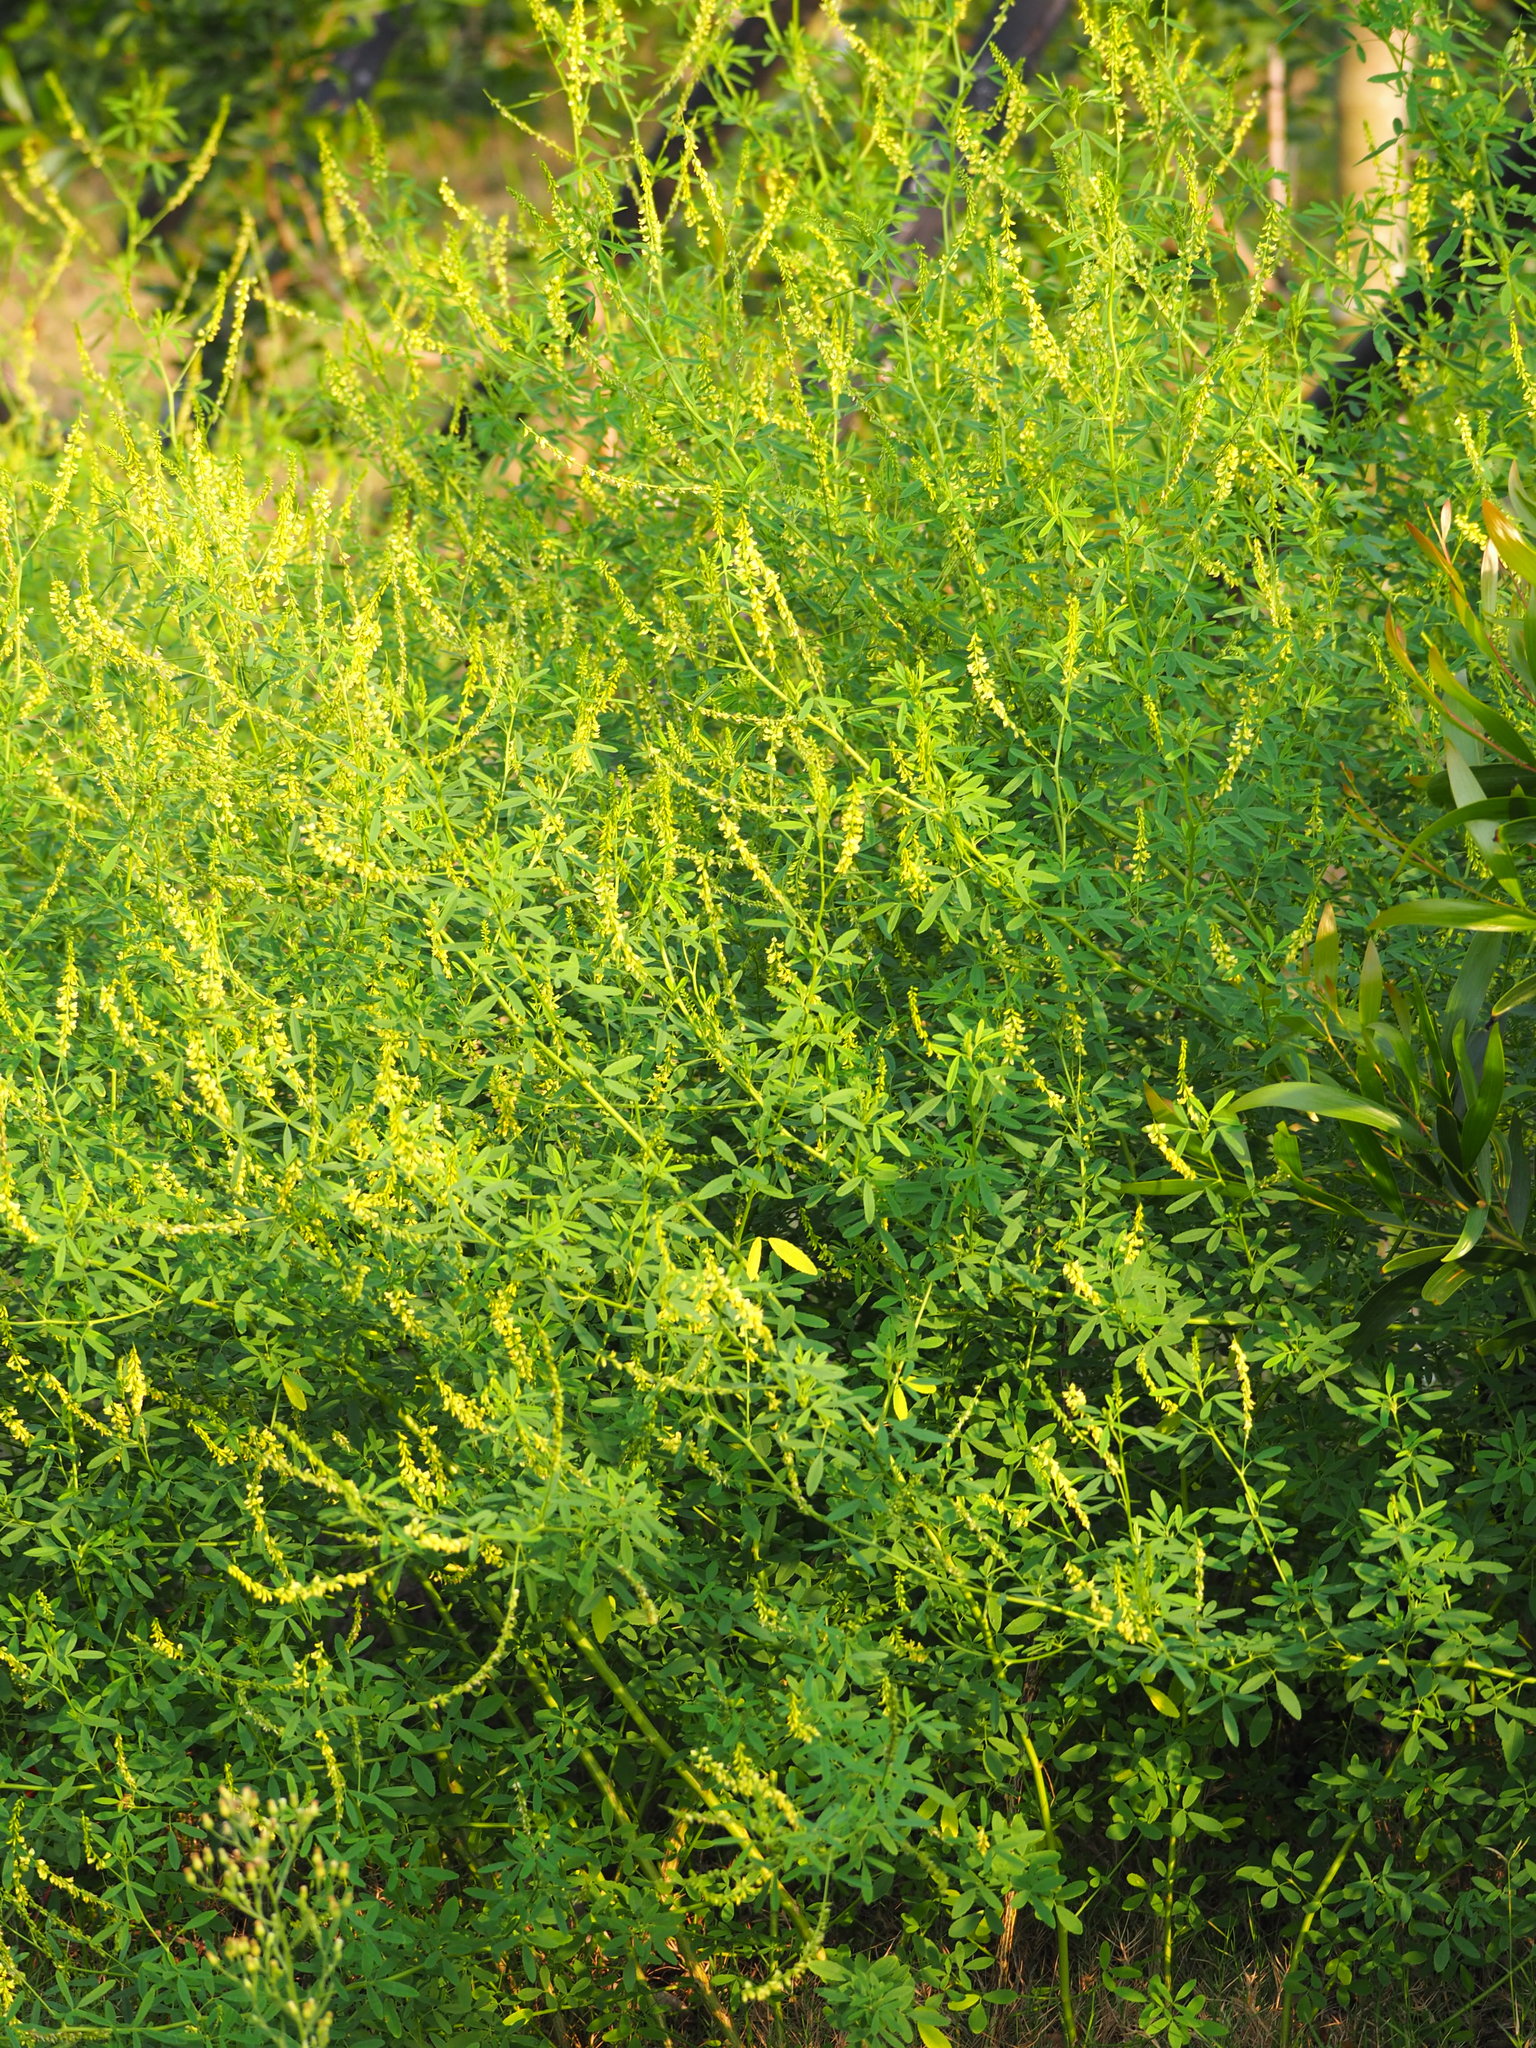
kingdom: Plantae
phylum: Tracheophyta
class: Magnoliopsida
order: Fabales
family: Fabaceae
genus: Melilotus
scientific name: Melilotus indicus
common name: Small melilot
